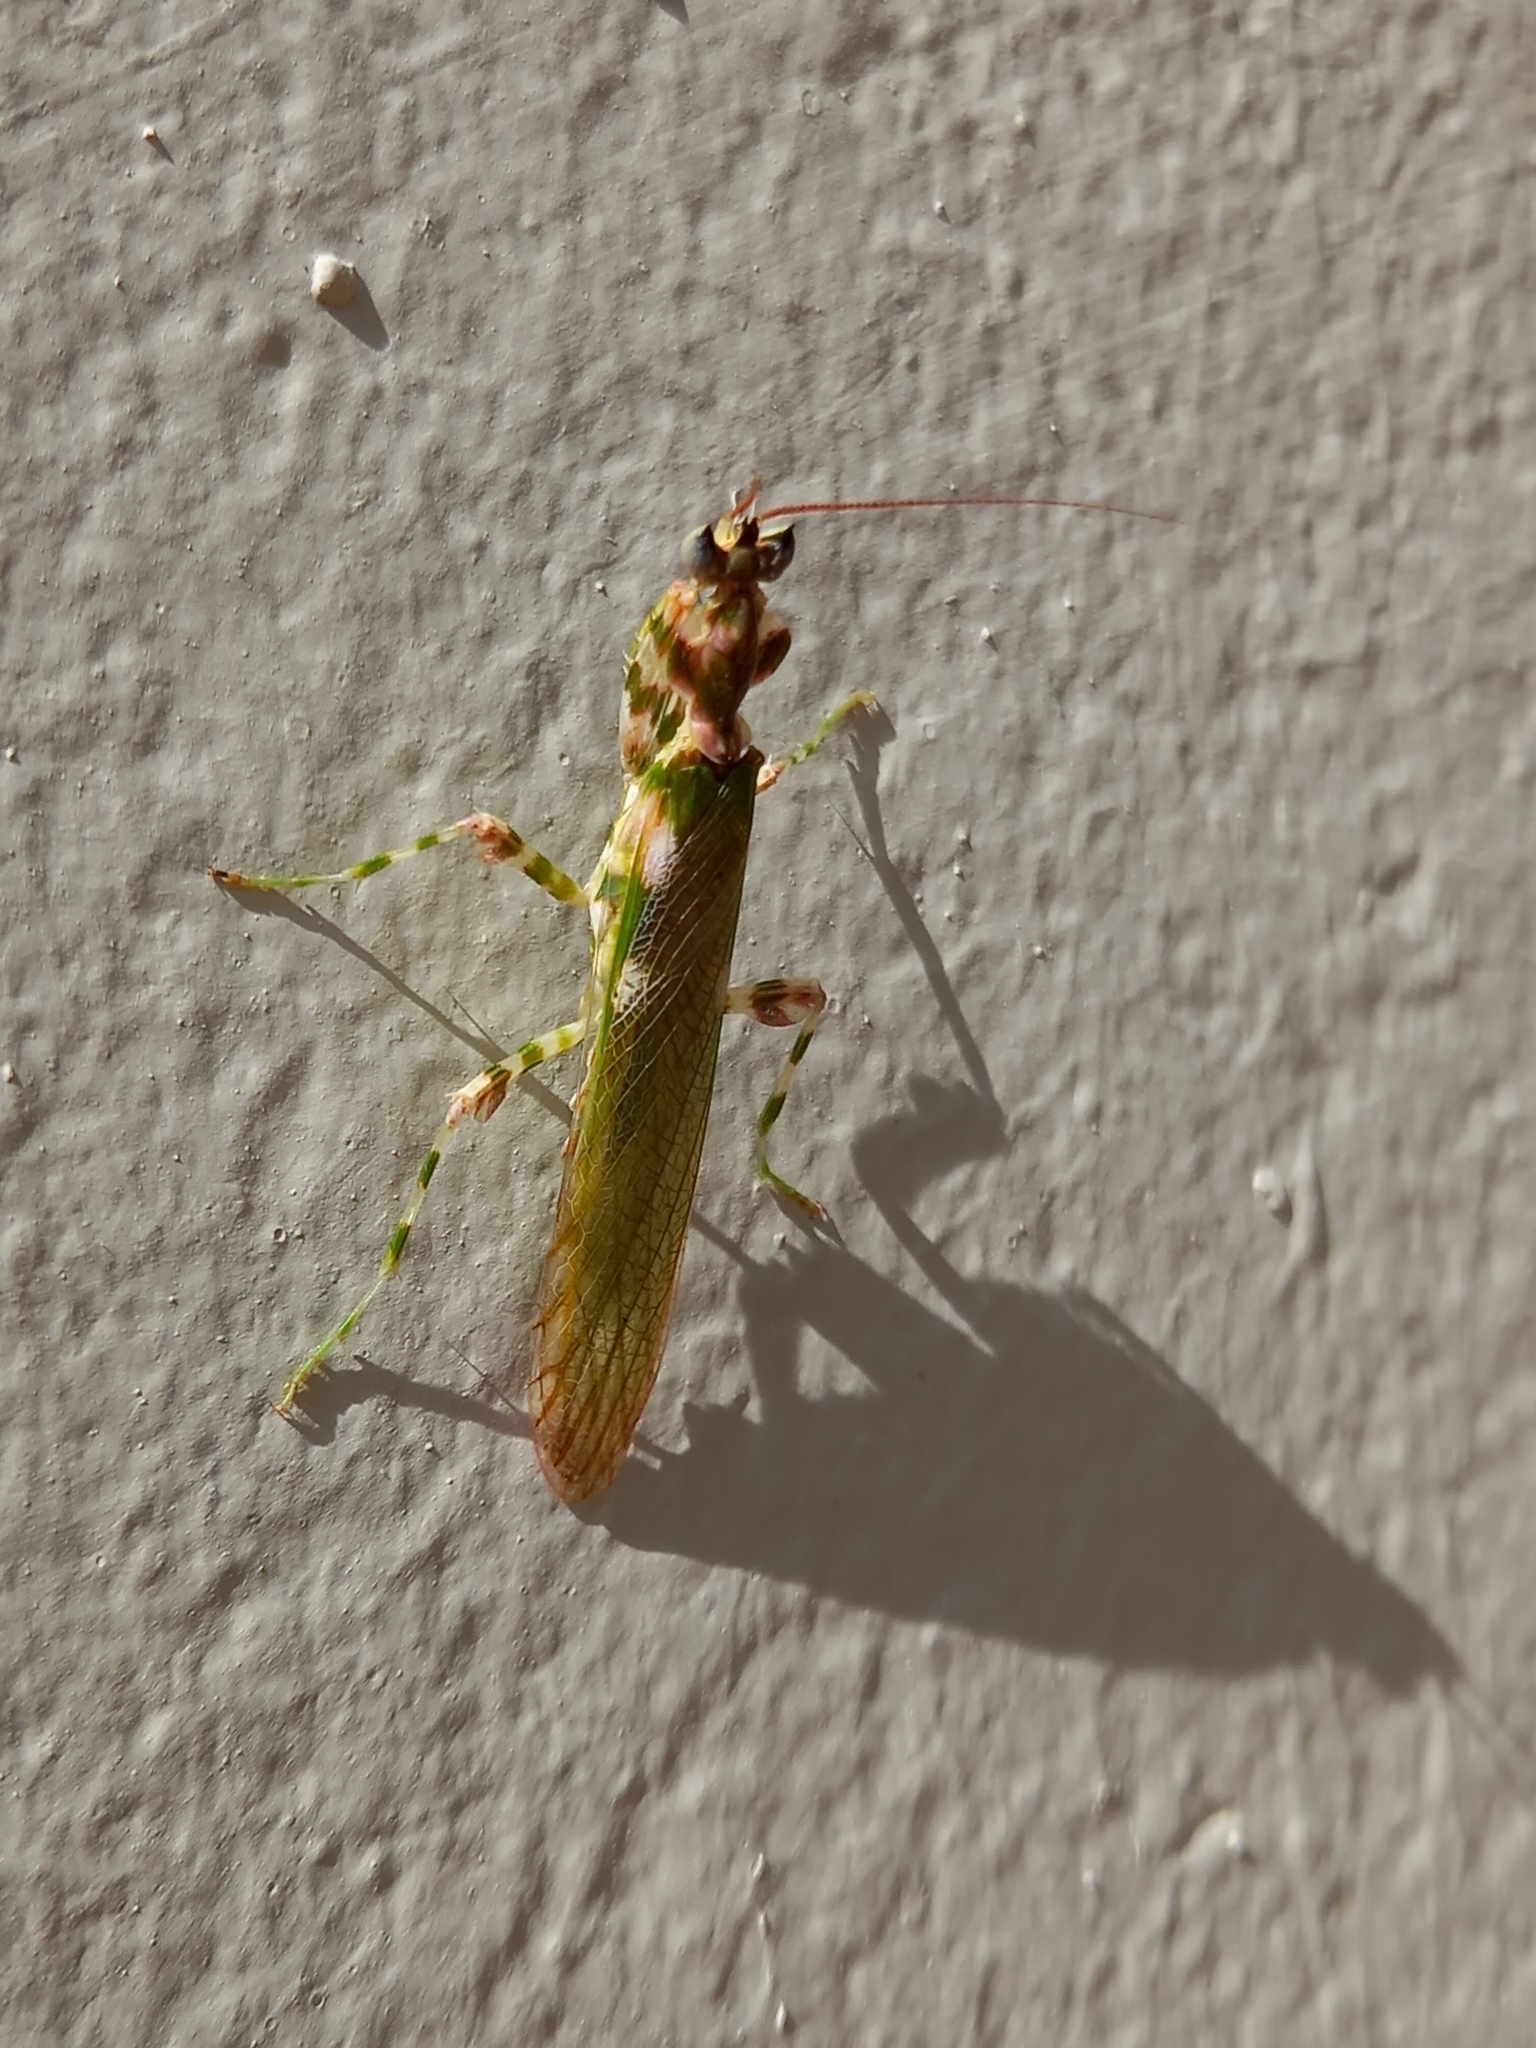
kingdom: Animalia
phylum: Arthropoda
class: Insecta
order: Mantodea
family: Galinthiadidae
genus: Harpagomantis
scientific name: Harpagomantis tricolor
